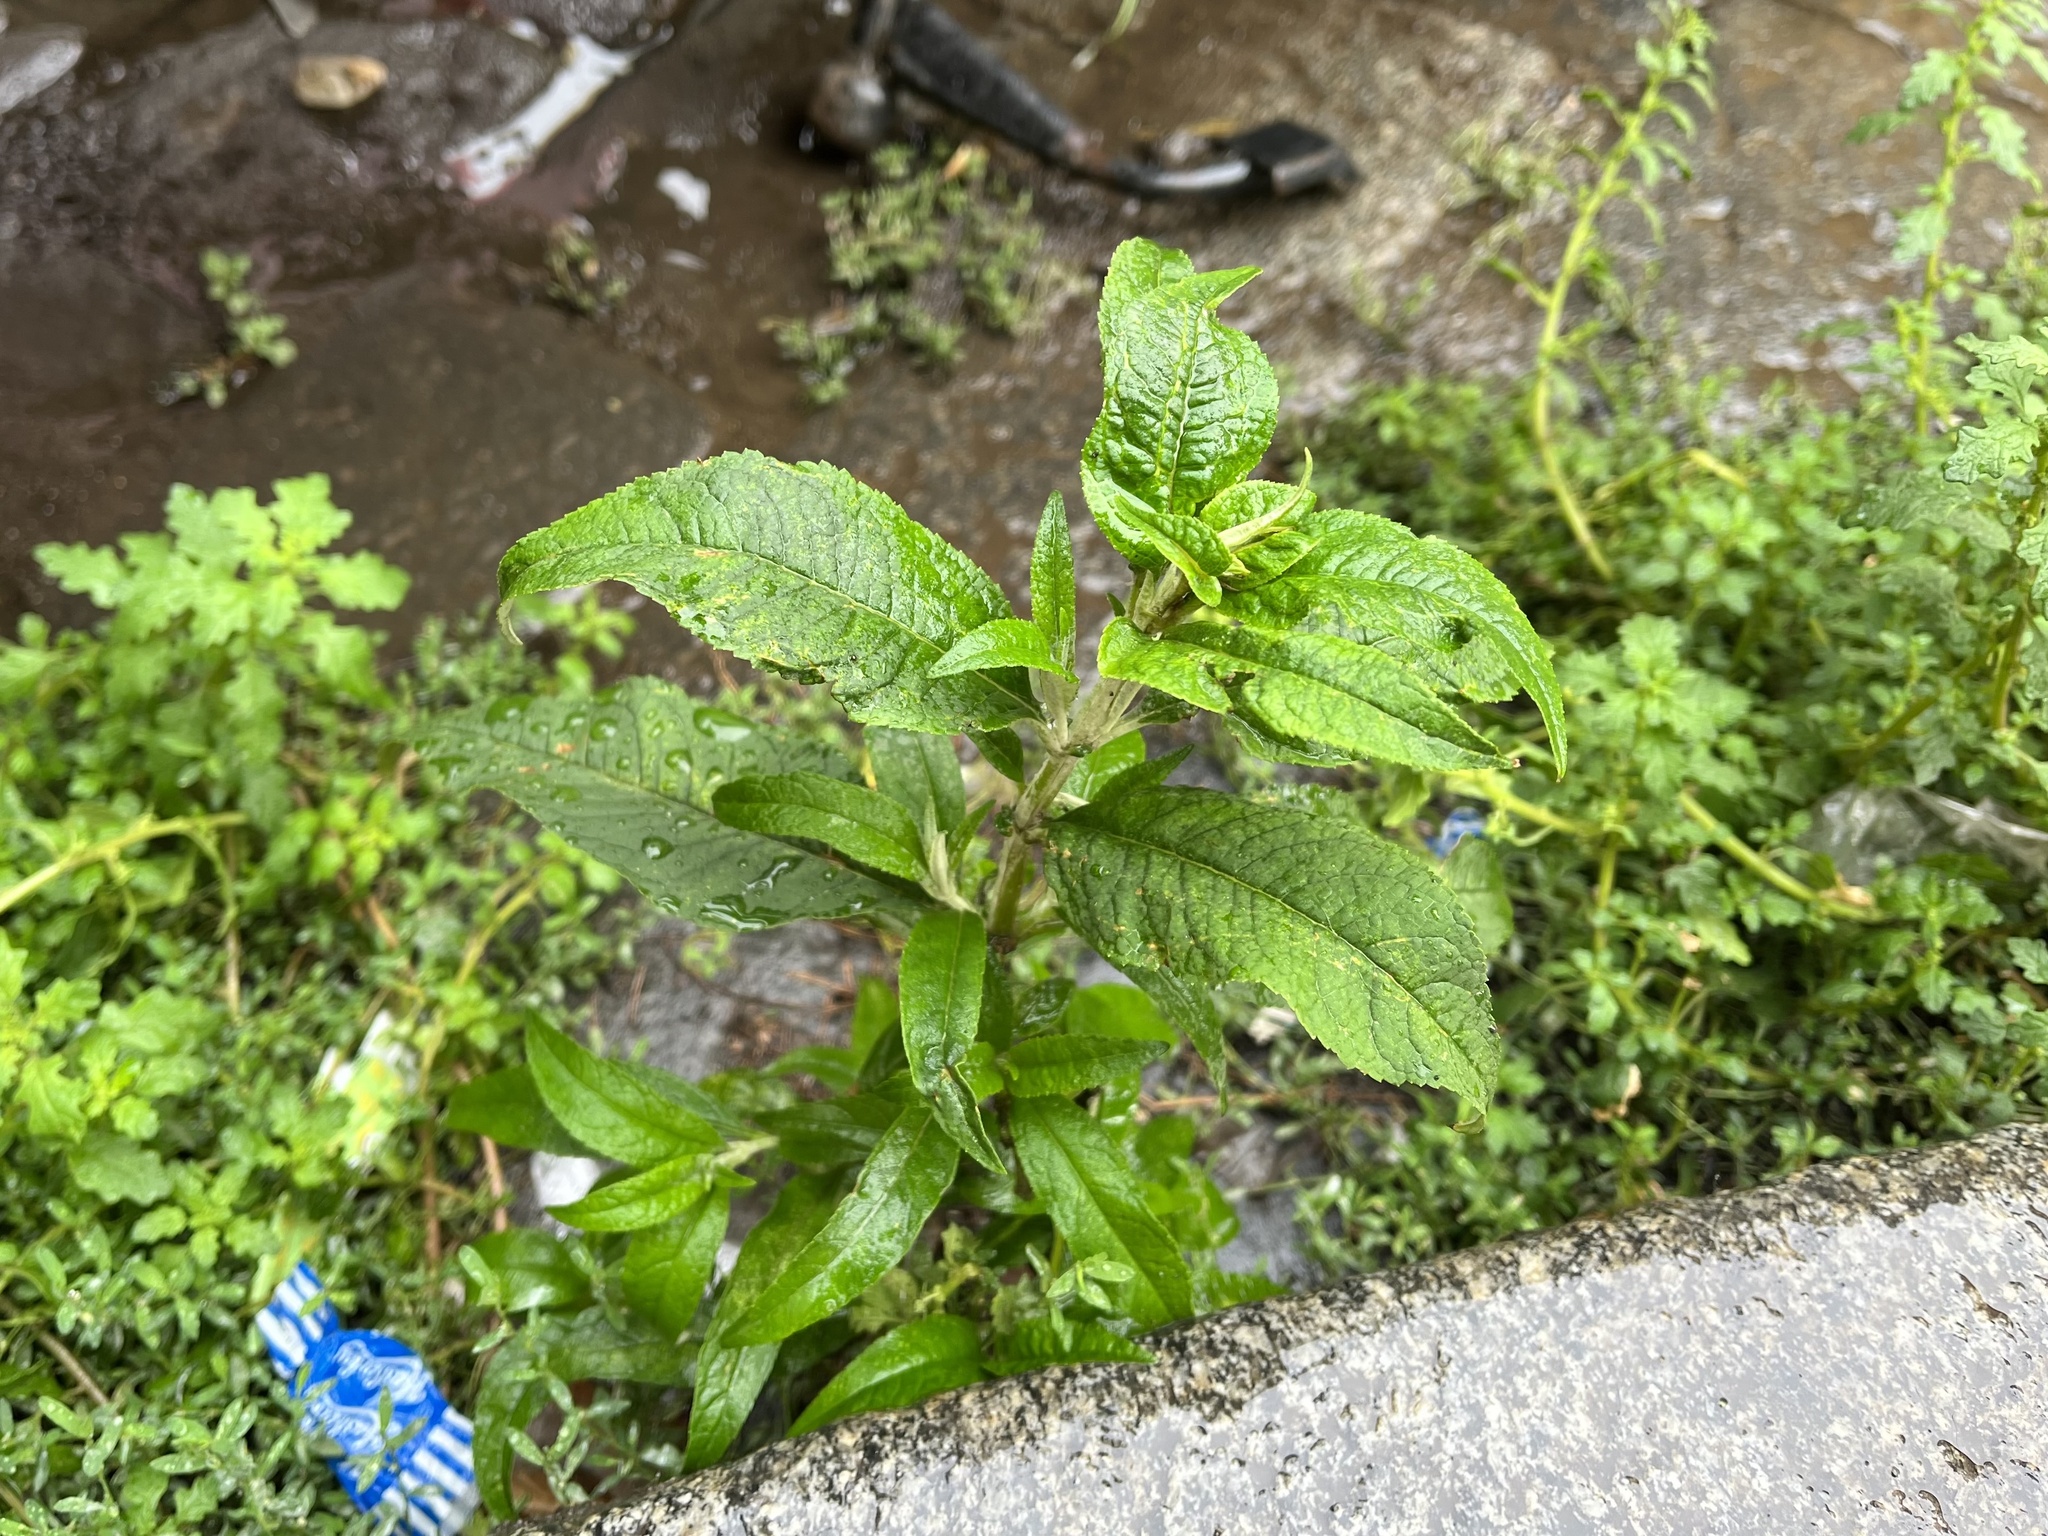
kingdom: Plantae
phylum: Tracheophyta
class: Magnoliopsida
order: Lamiales
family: Scrophulariaceae
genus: Buddleja
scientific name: Buddleja davidii
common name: Butterfly-bush
